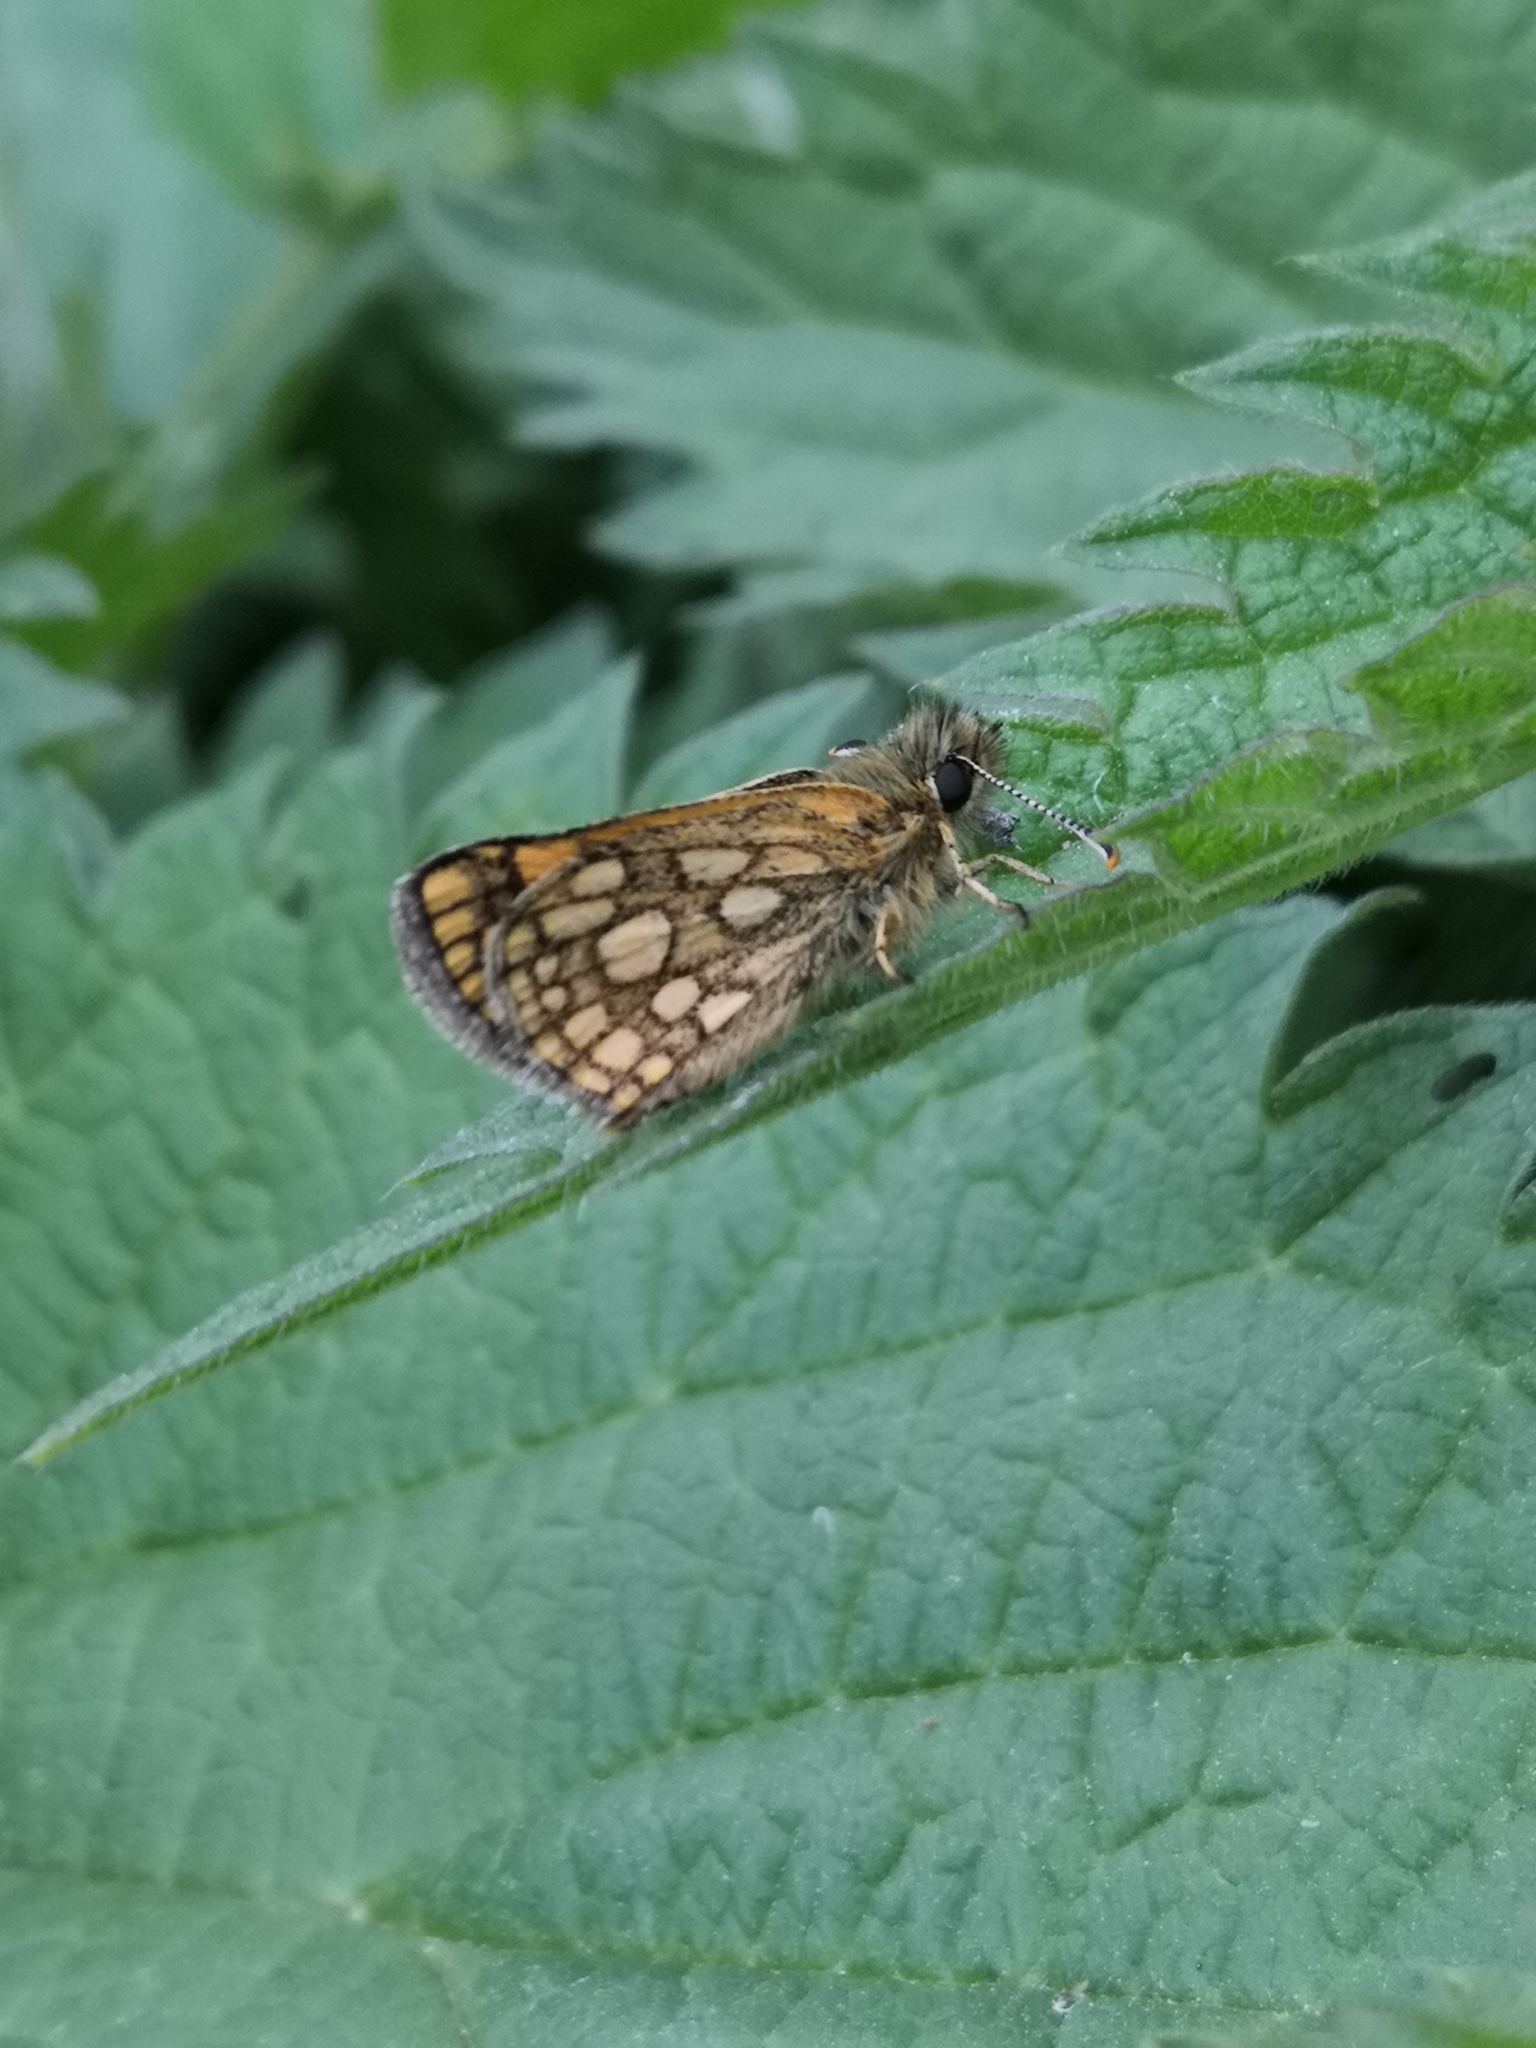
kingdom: Animalia
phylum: Arthropoda
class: Insecta
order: Lepidoptera
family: Hesperiidae
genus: Carterocephalus
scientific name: Carterocephalus palaemon
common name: Chequered skipper
